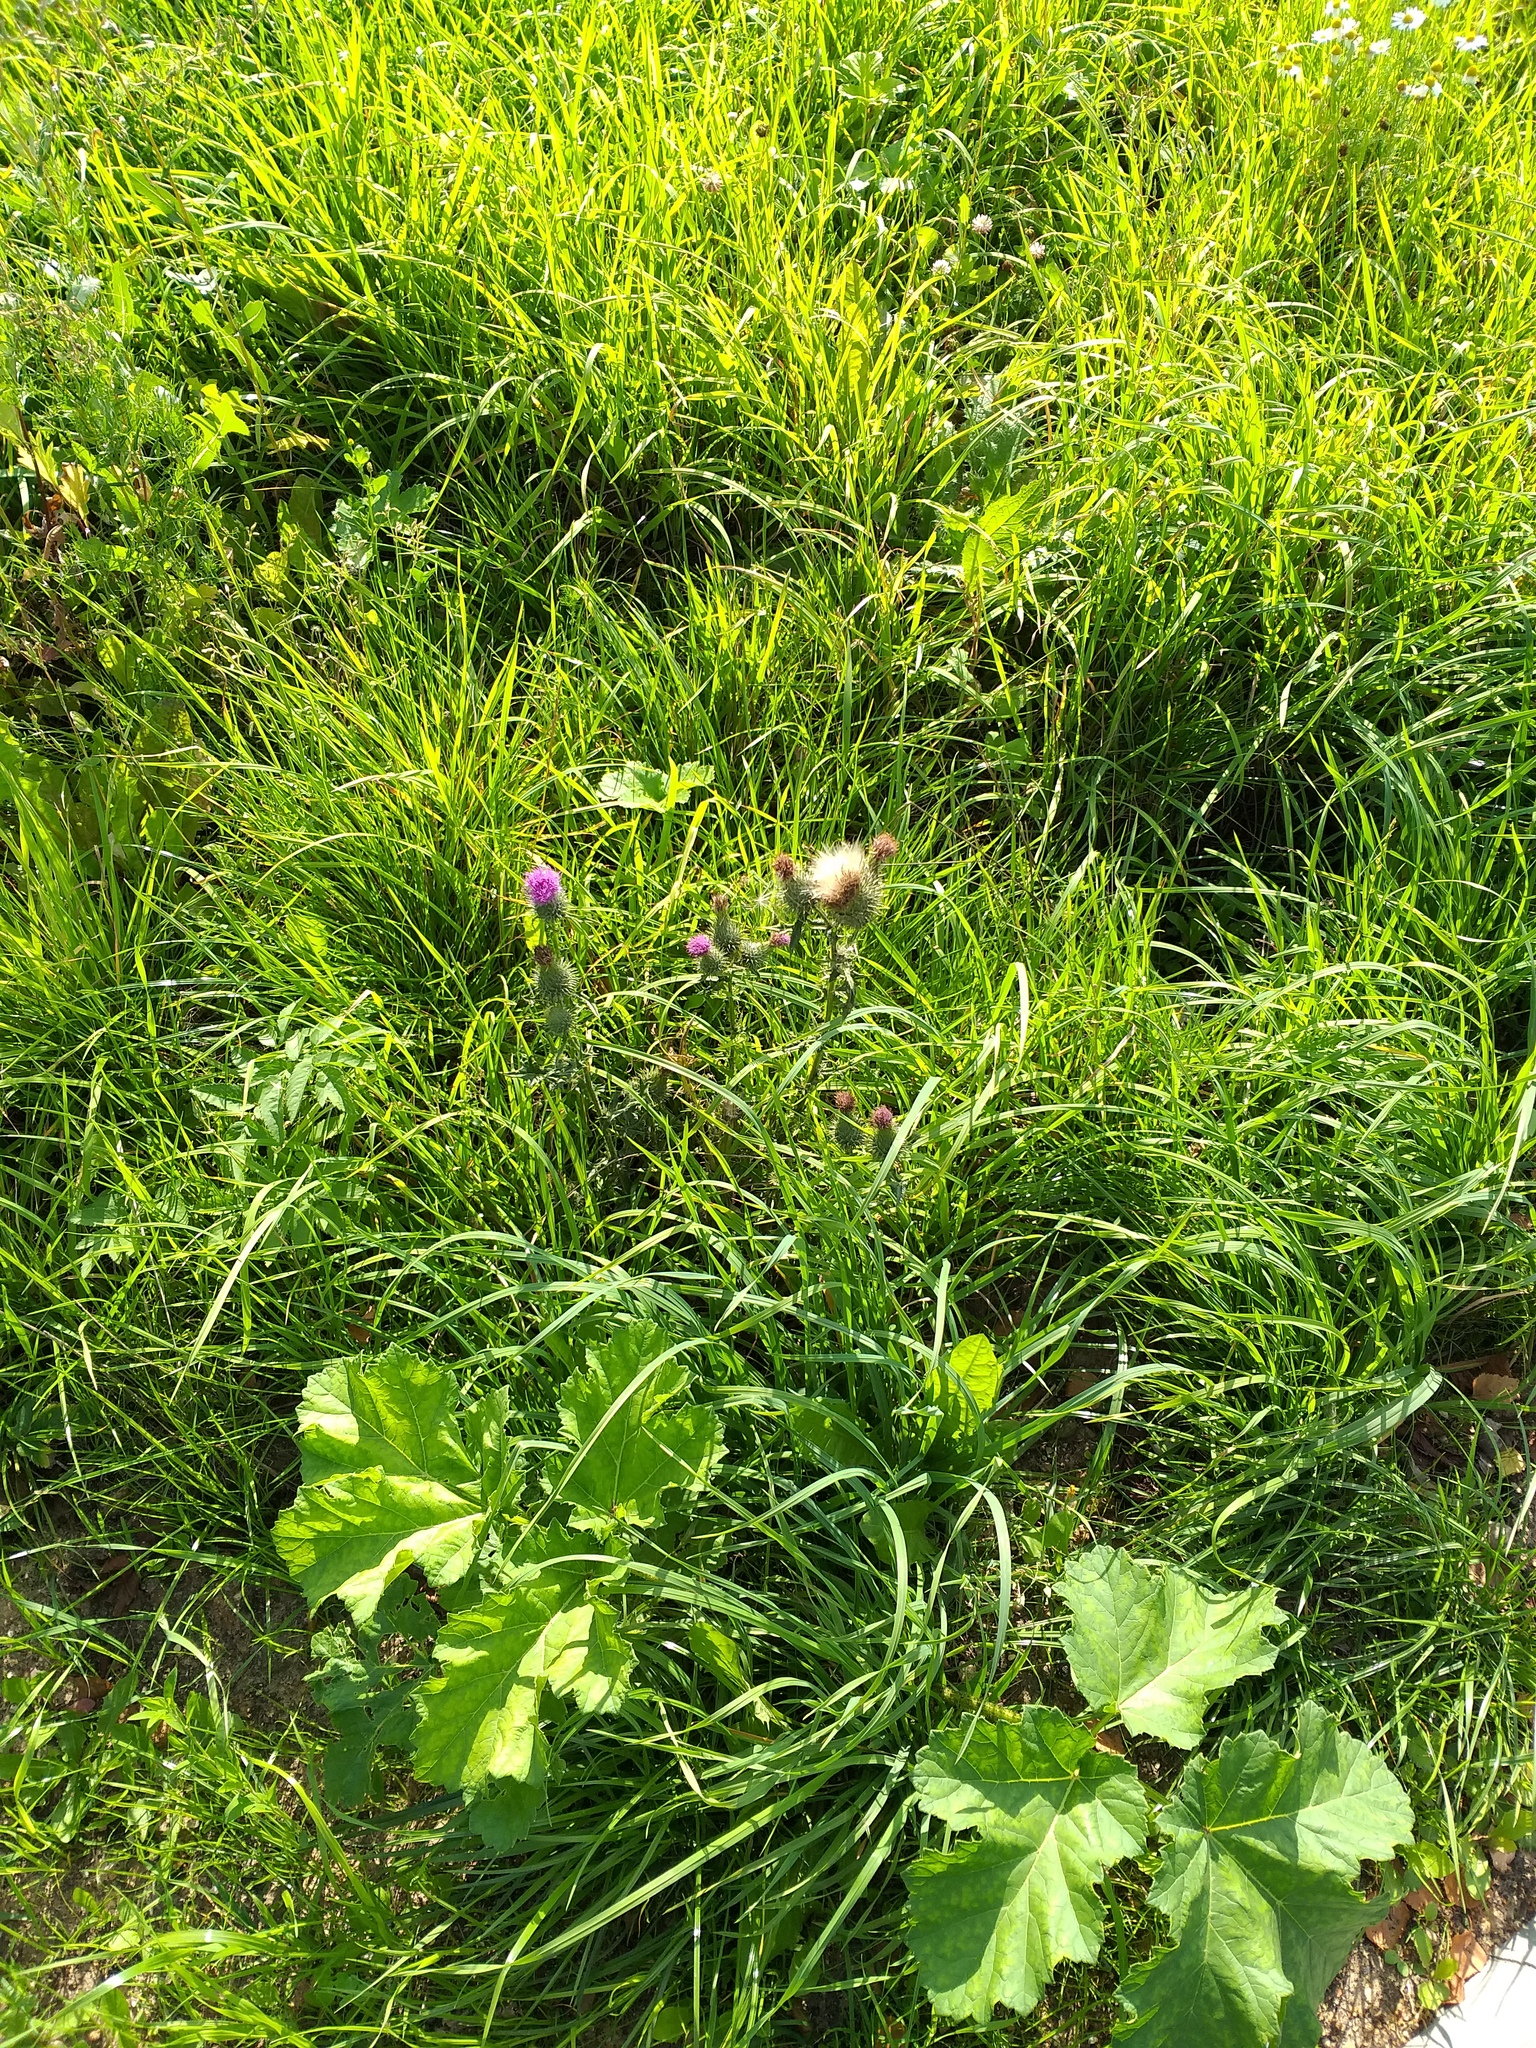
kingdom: Plantae
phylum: Tracheophyta
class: Magnoliopsida
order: Asterales
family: Asteraceae
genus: Cirsium
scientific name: Cirsium vulgare
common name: Bull thistle
